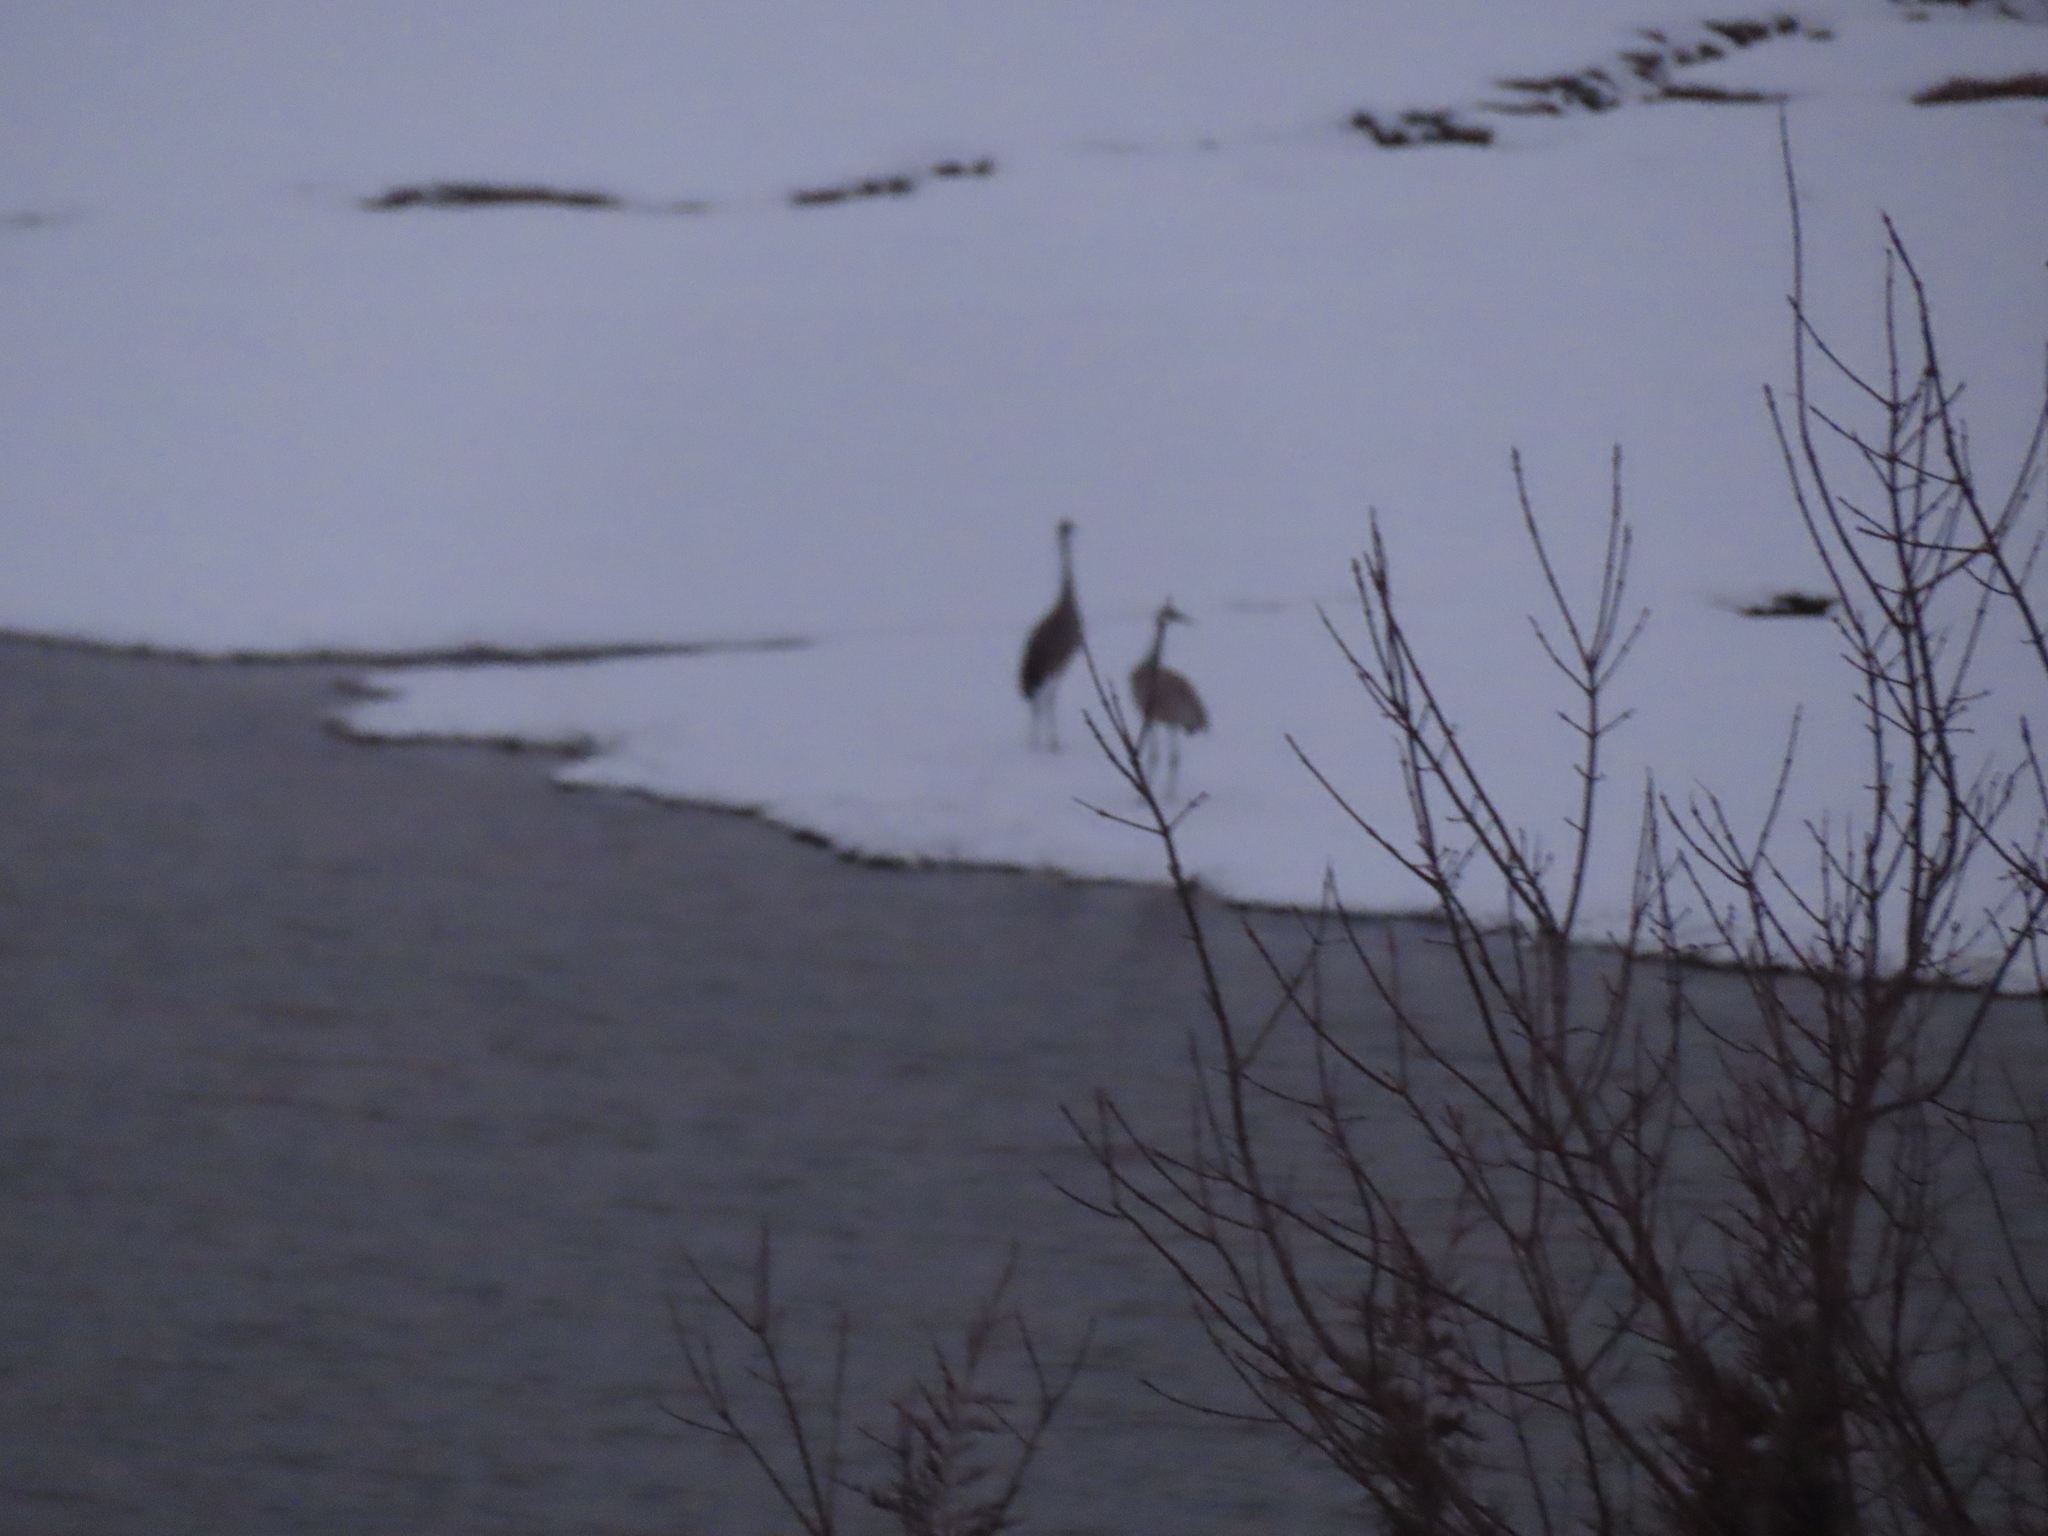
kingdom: Animalia
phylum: Chordata
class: Aves
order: Gruiformes
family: Gruidae
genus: Grus
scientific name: Grus canadensis
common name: Sandhill crane
